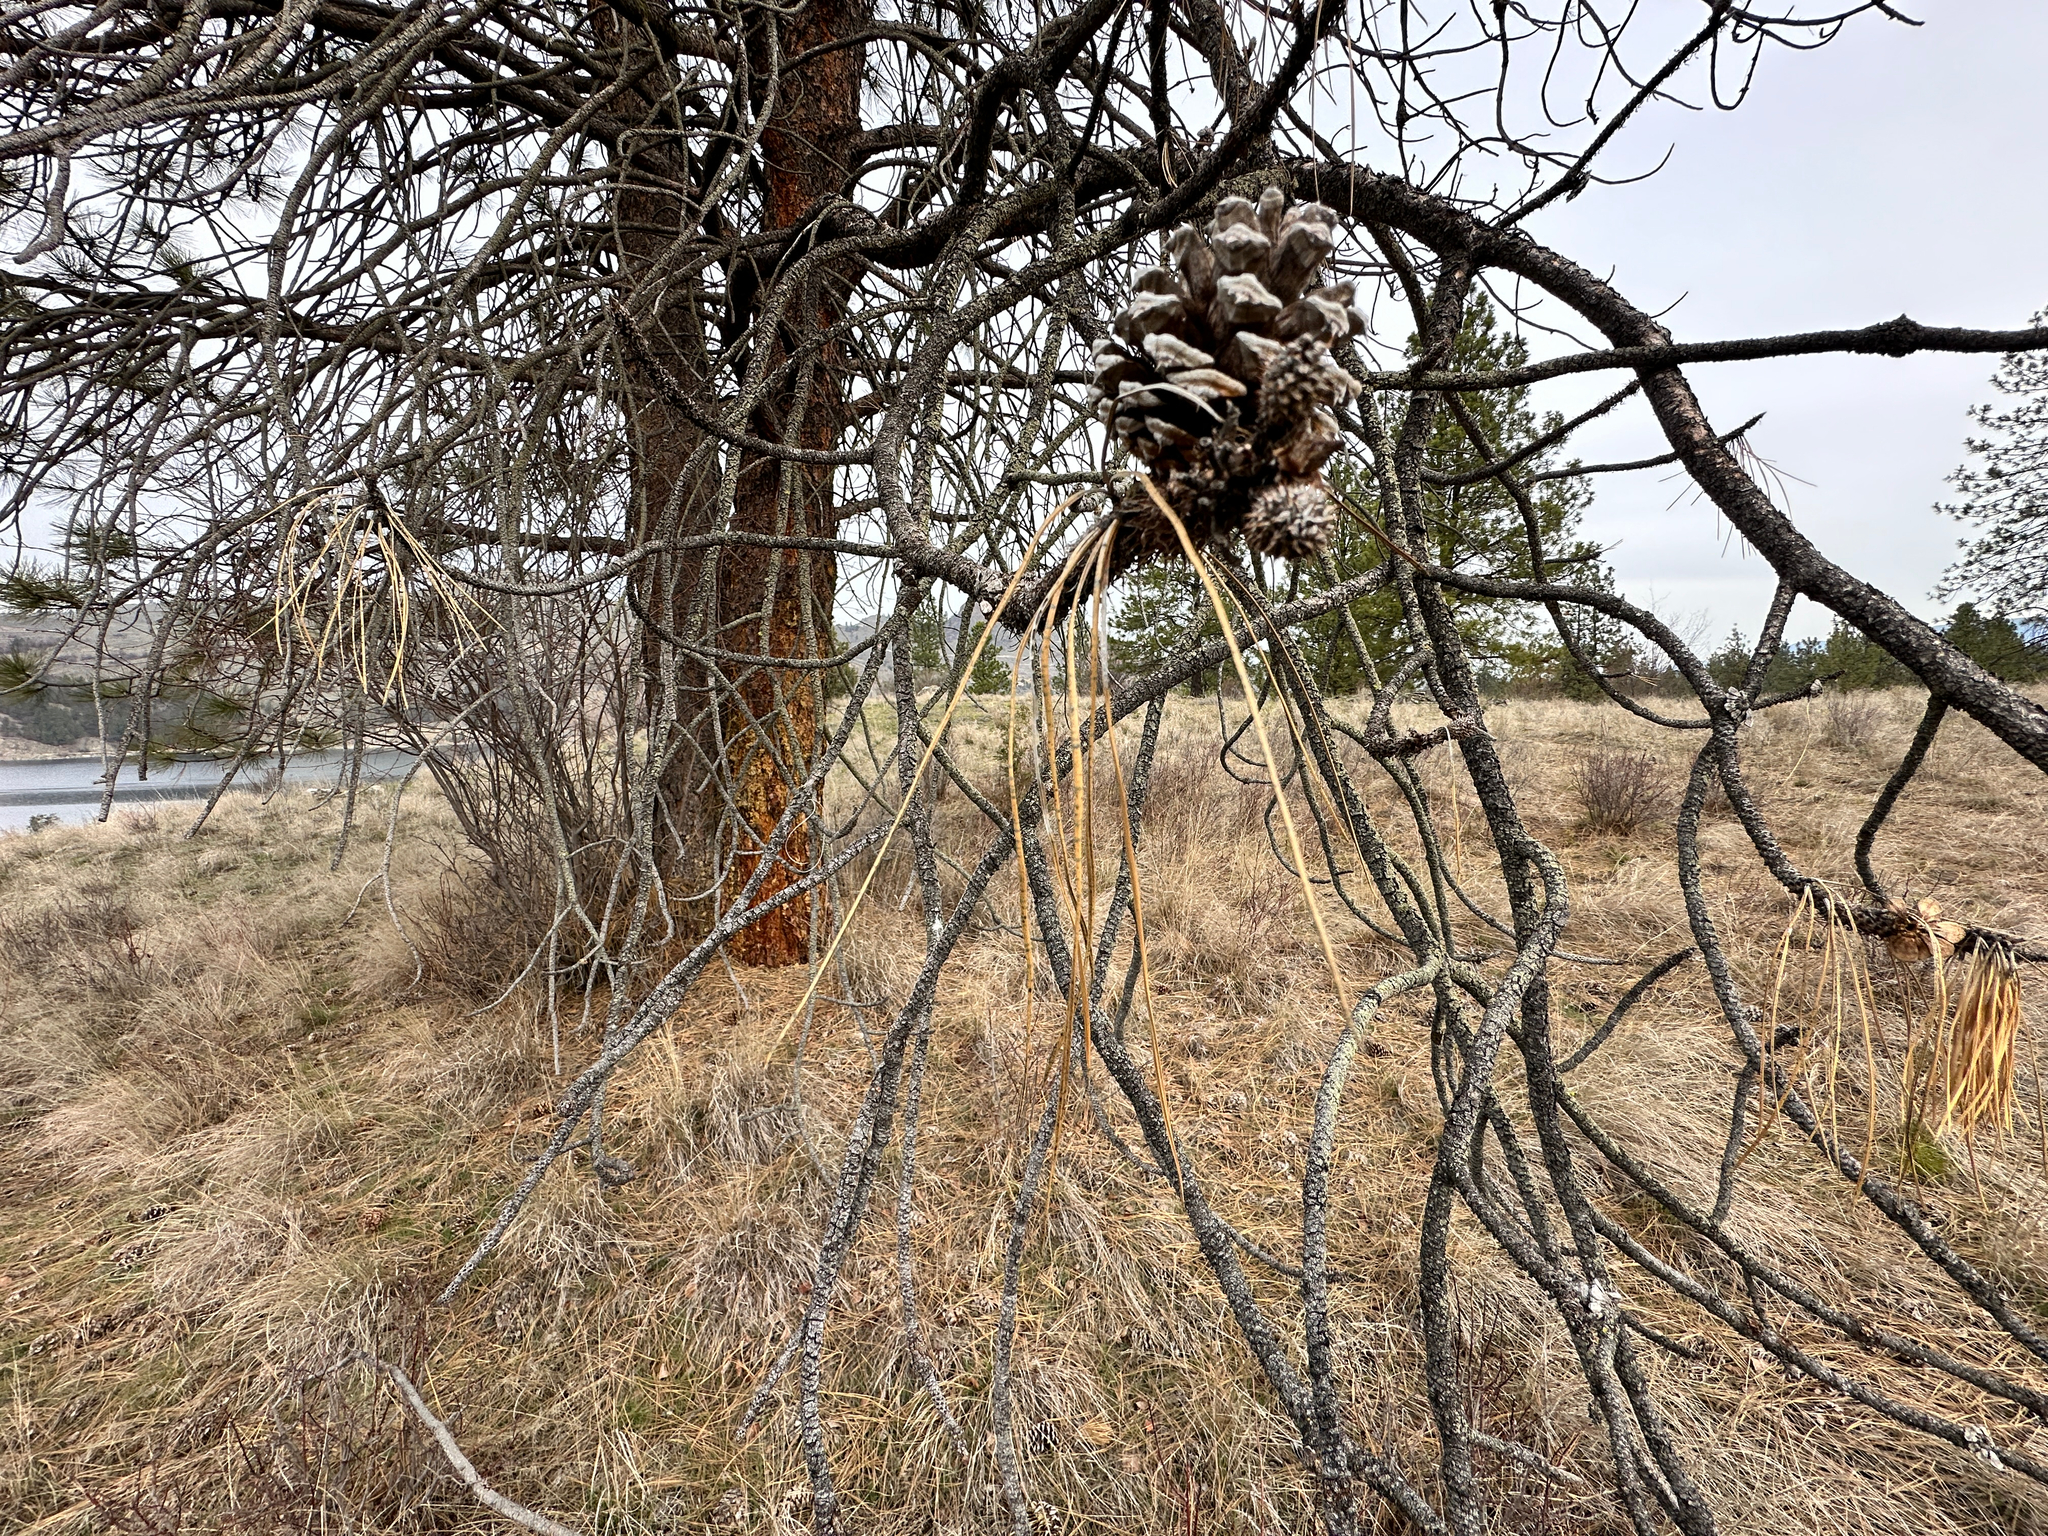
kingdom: Plantae
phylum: Tracheophyta
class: Pinopsida
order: Pinales
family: Pinaceae
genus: Pinus
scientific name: Pinus ponderosa
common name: Western yellow-pine
